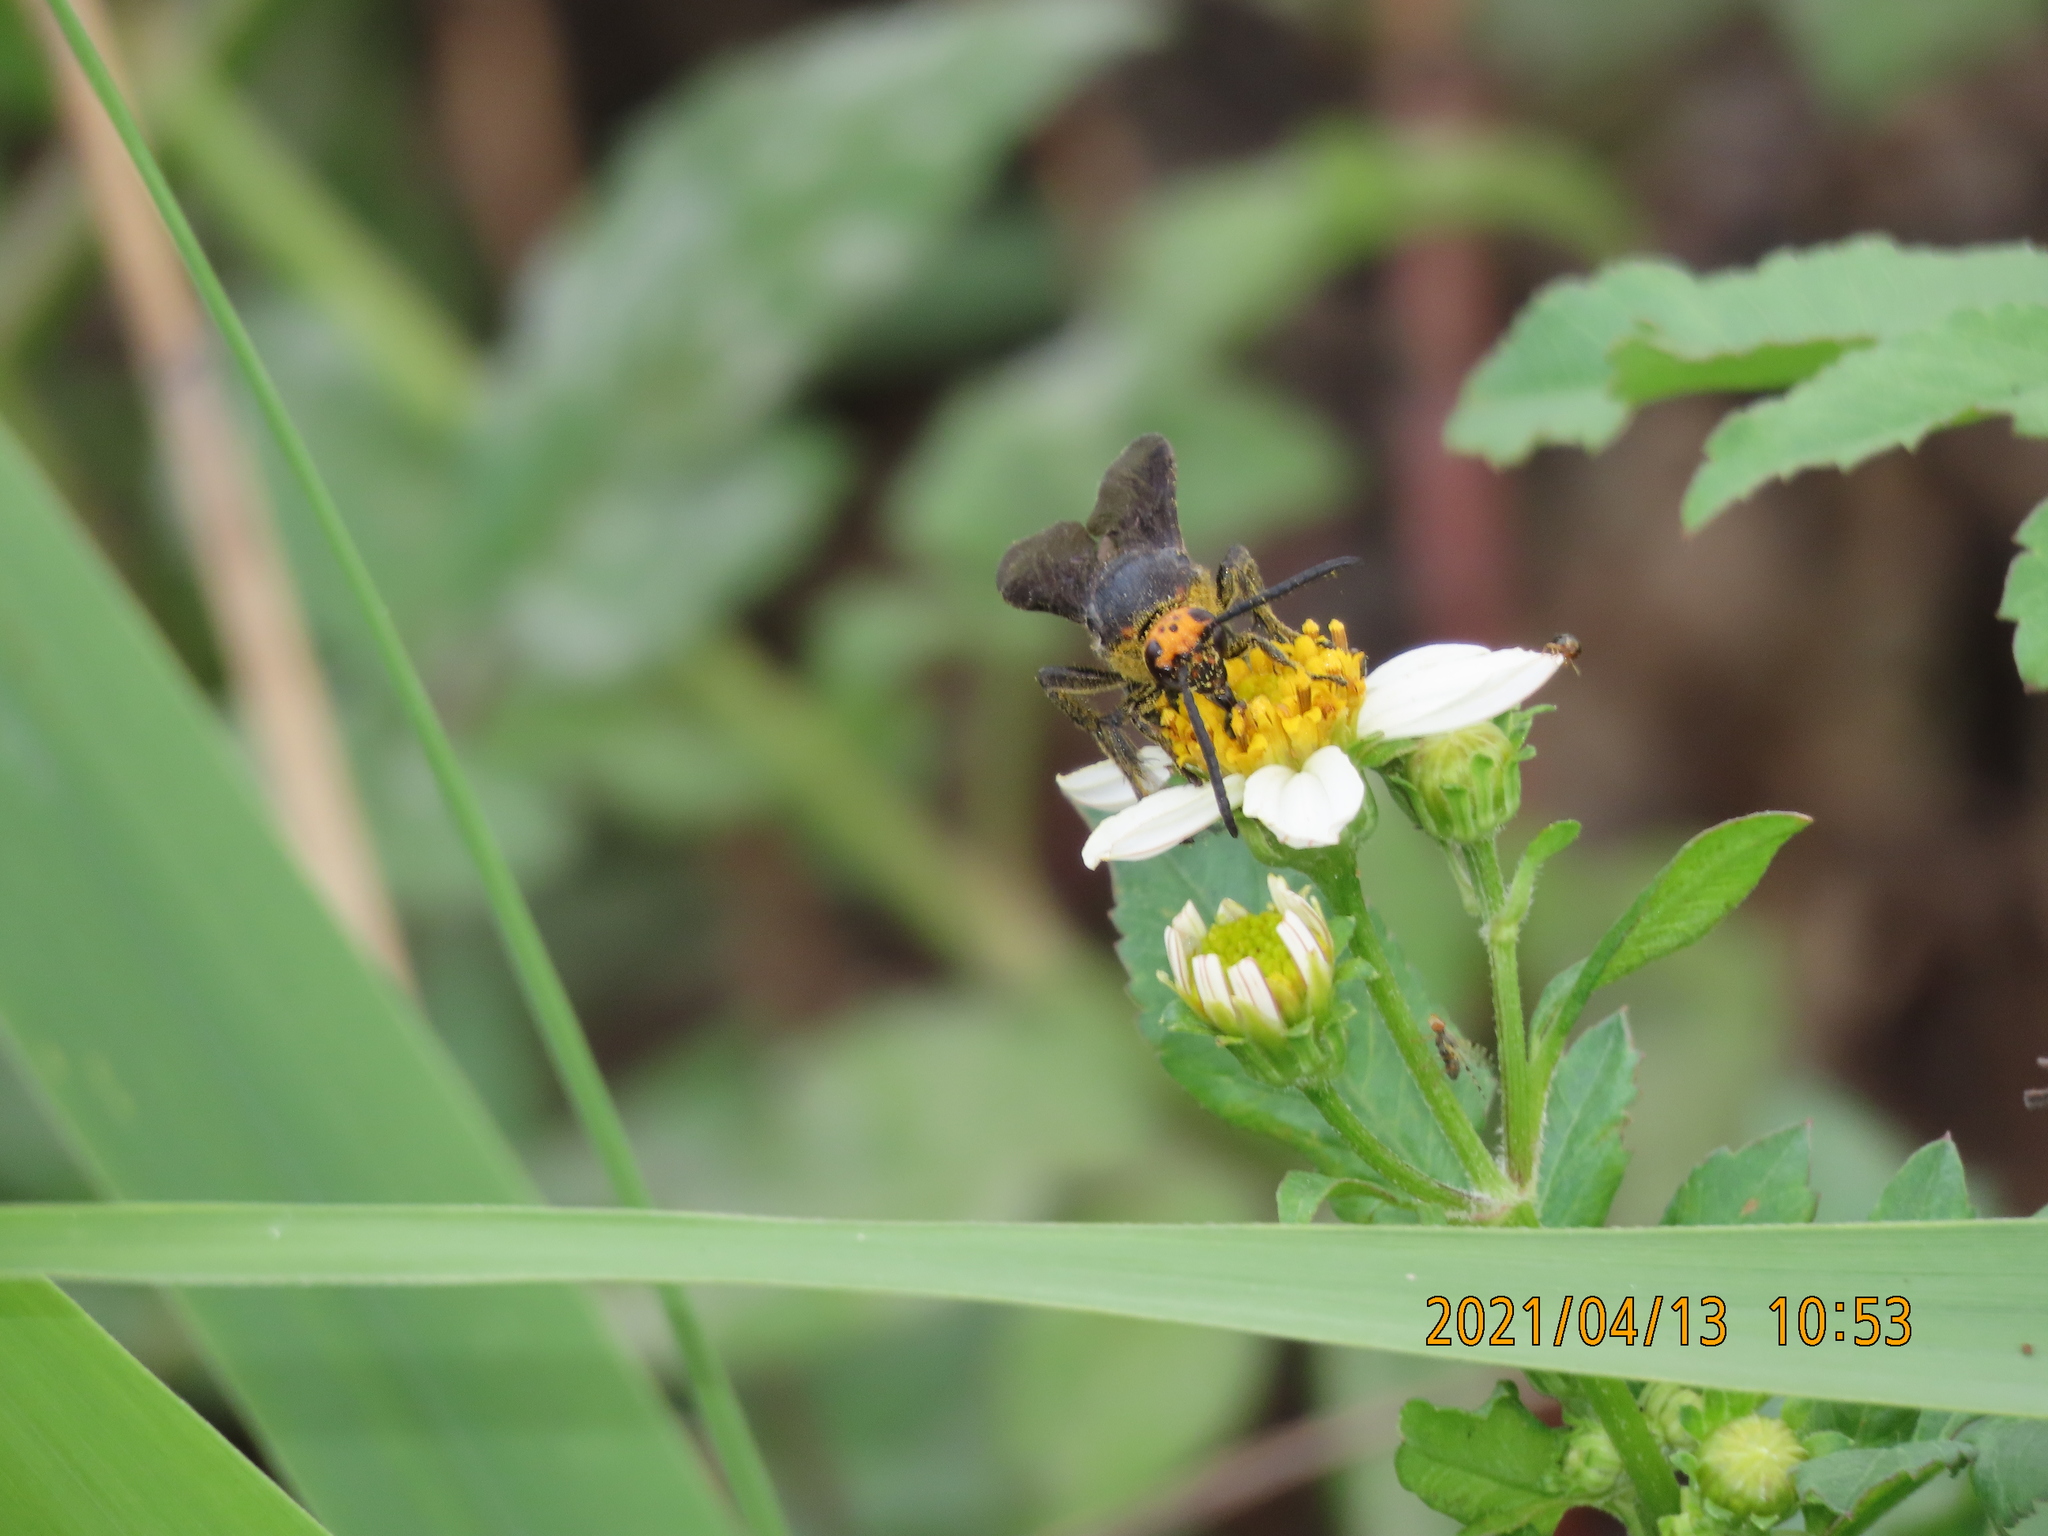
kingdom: Animalia
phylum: Arthropoda
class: Insecta
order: Hymenoptera
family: Scoliidae
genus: Scolia
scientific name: Scolia clypeata
